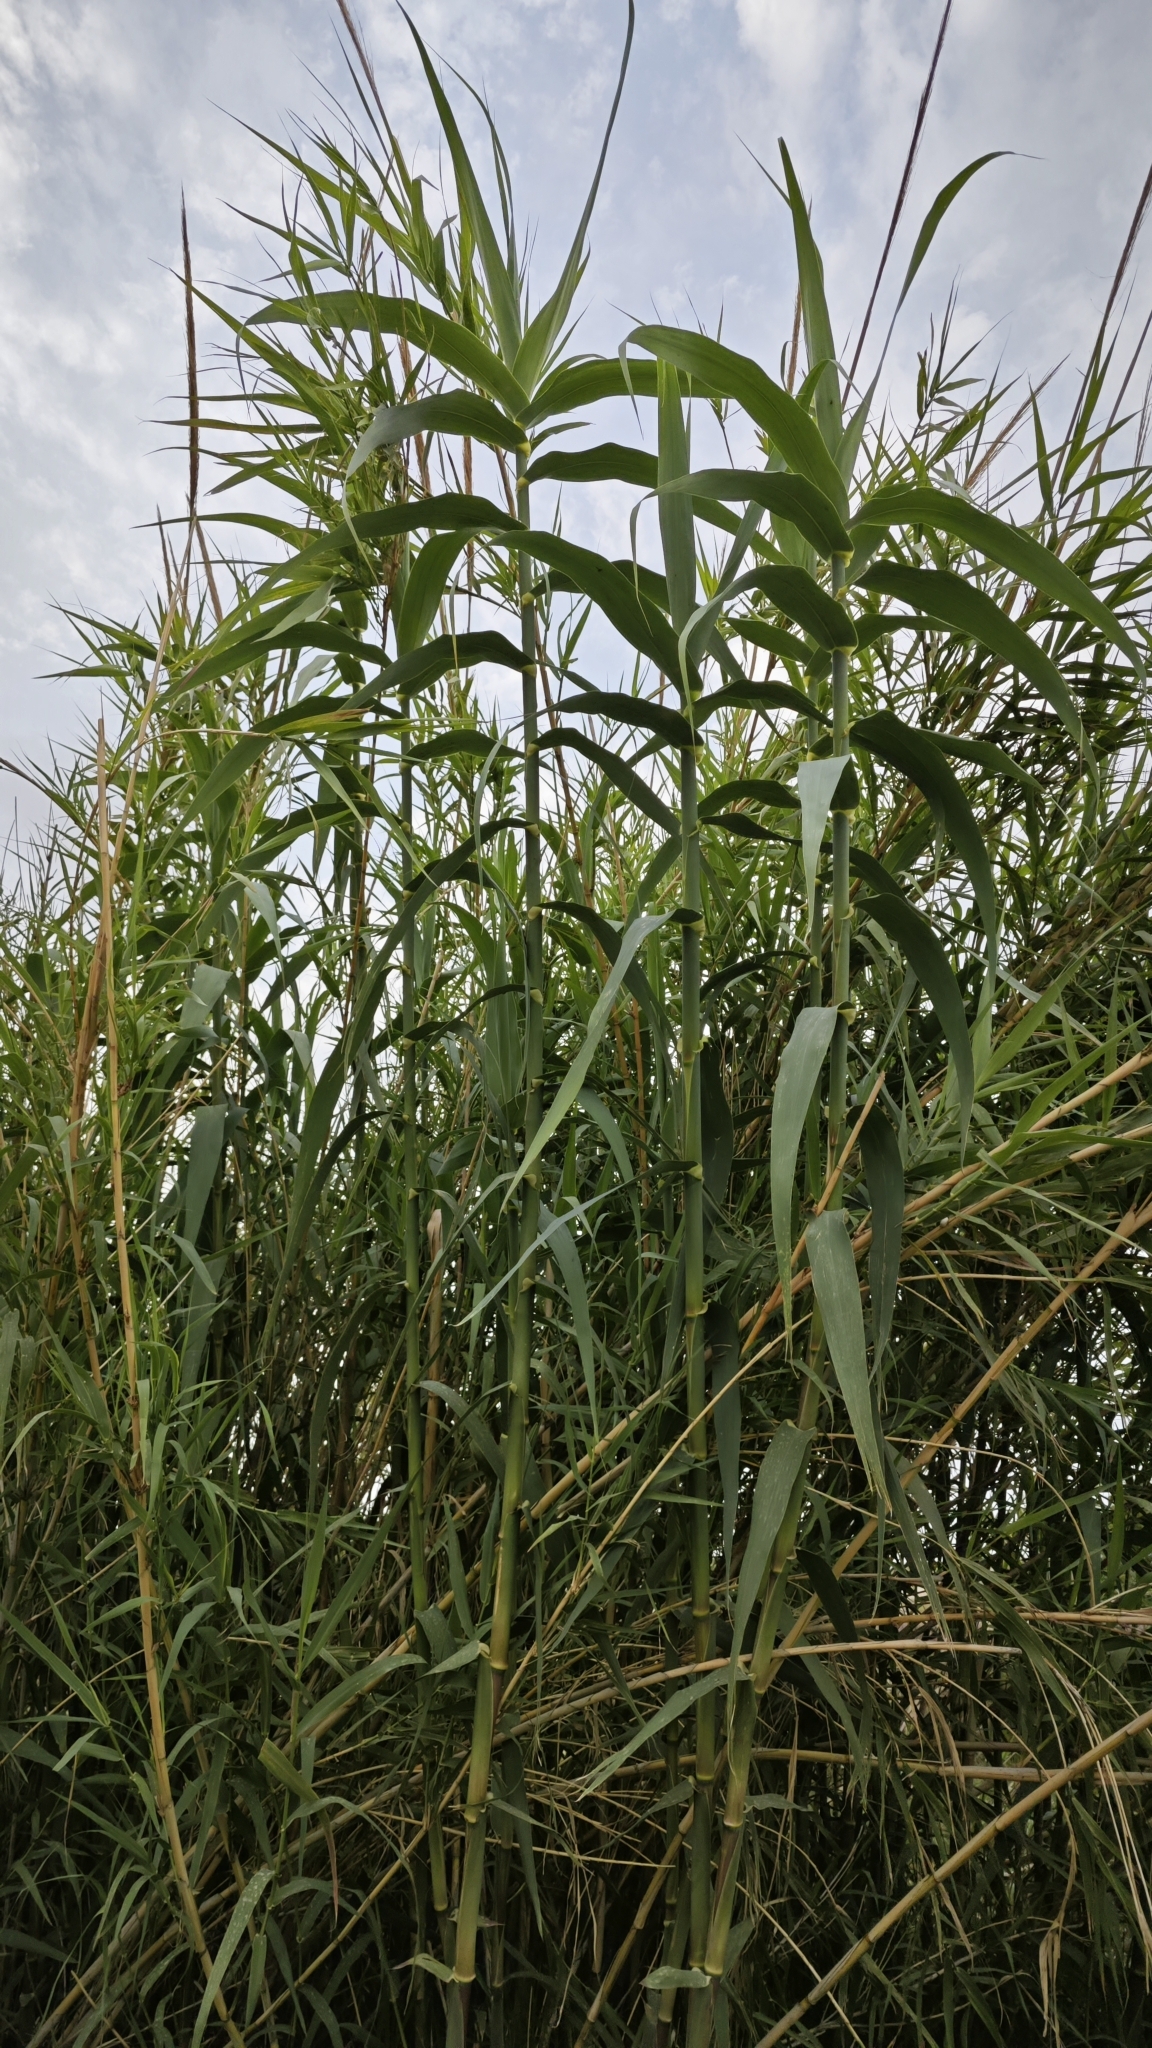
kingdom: Plantae
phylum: Tracheophyta
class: Liliopsida
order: Poales
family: Poaceae
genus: Arundo
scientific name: Arundo donax
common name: Giant reed
